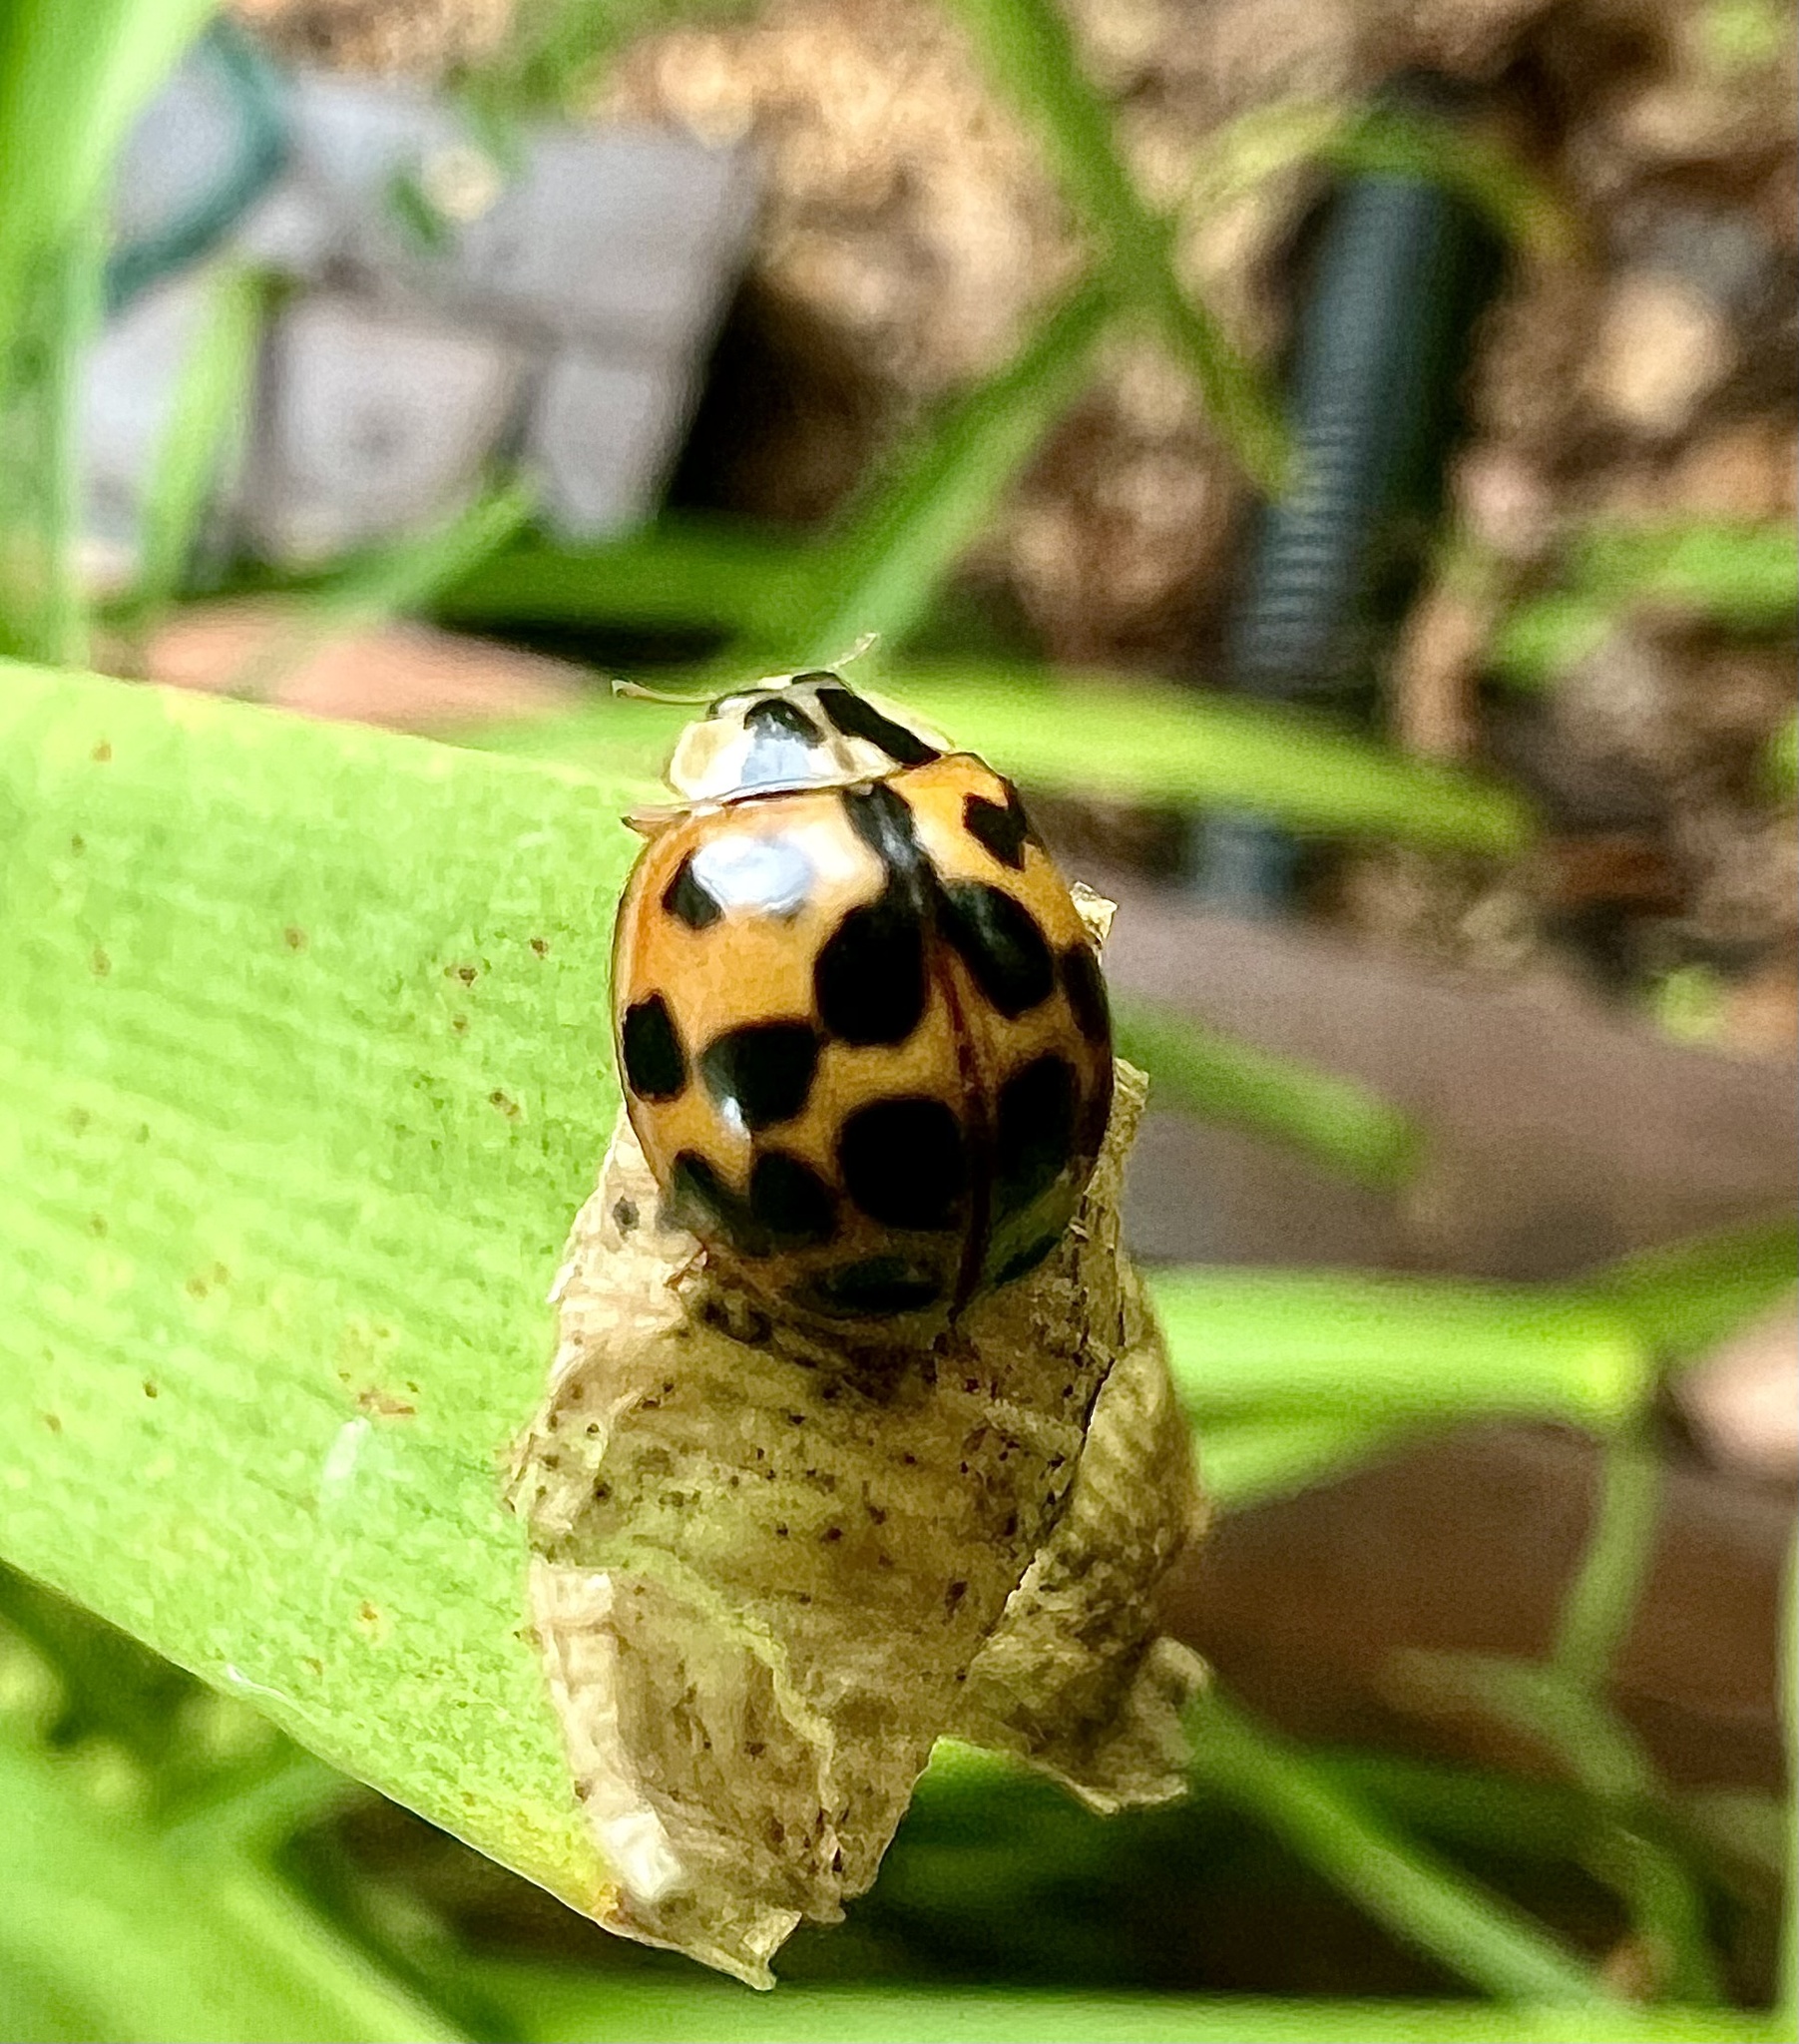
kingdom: Animalia
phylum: Arthropoda
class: Insecta
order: Coleoptera
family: Coccinellidae
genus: Harmonia
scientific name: Harmonia axyridis
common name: Harlequin ladybird
